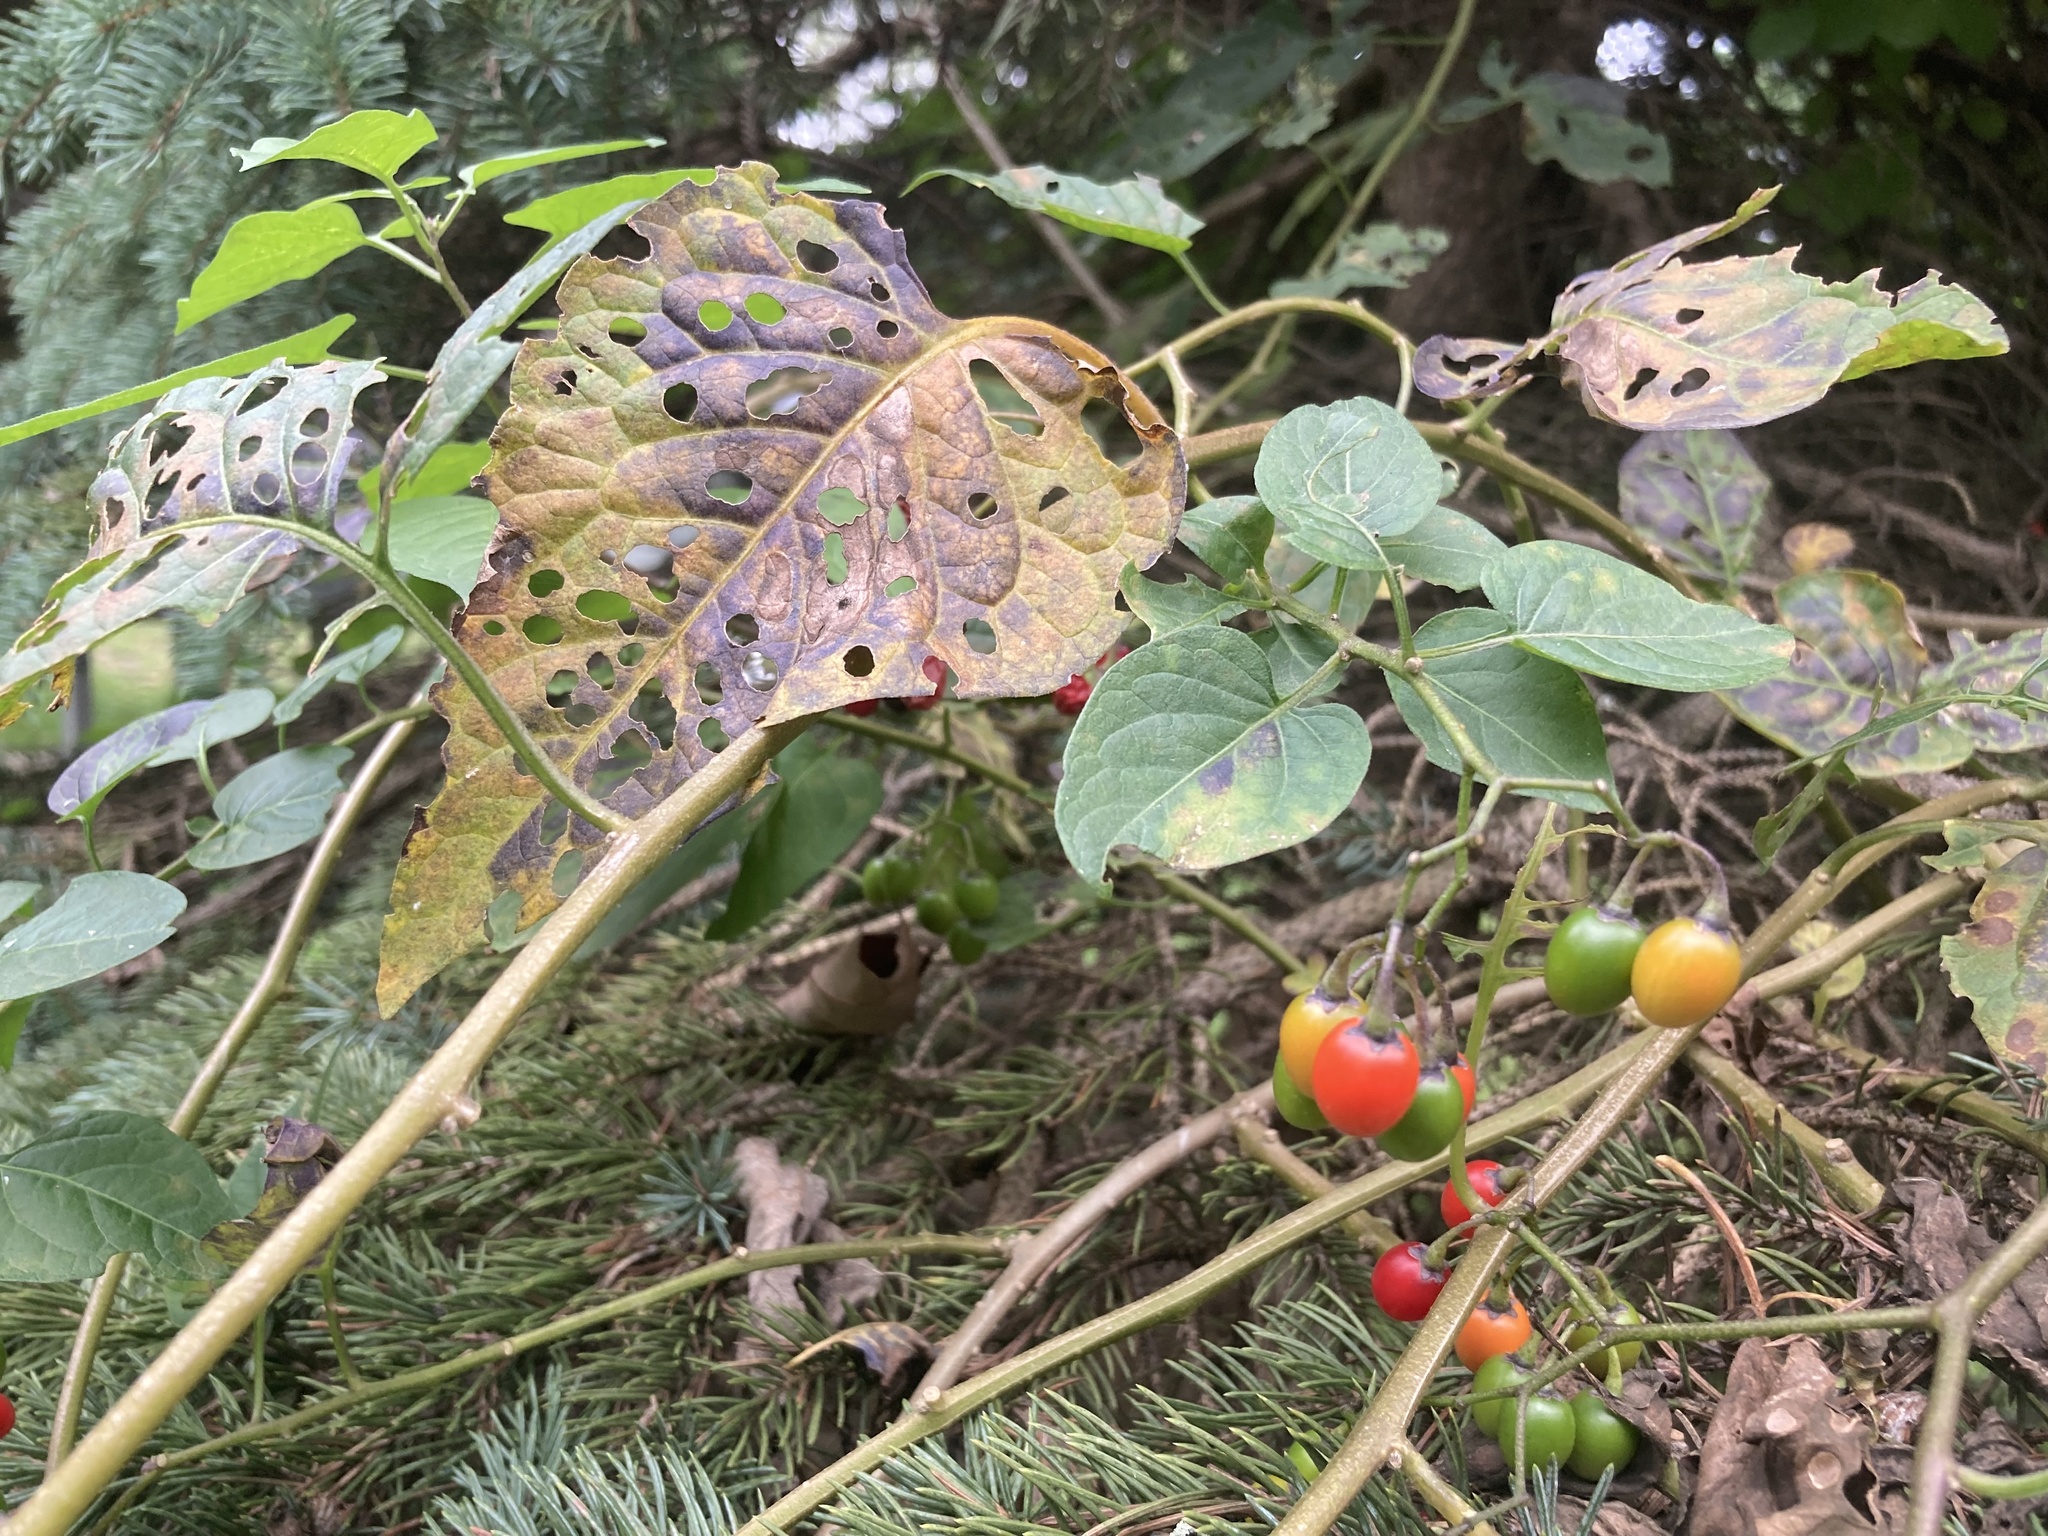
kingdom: Plantae
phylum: Tracheophyta
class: Magnoliopsida
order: Solanales
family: Solanaceae
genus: Solanum
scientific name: Solanum dulcamara
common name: Climbing nightshade
